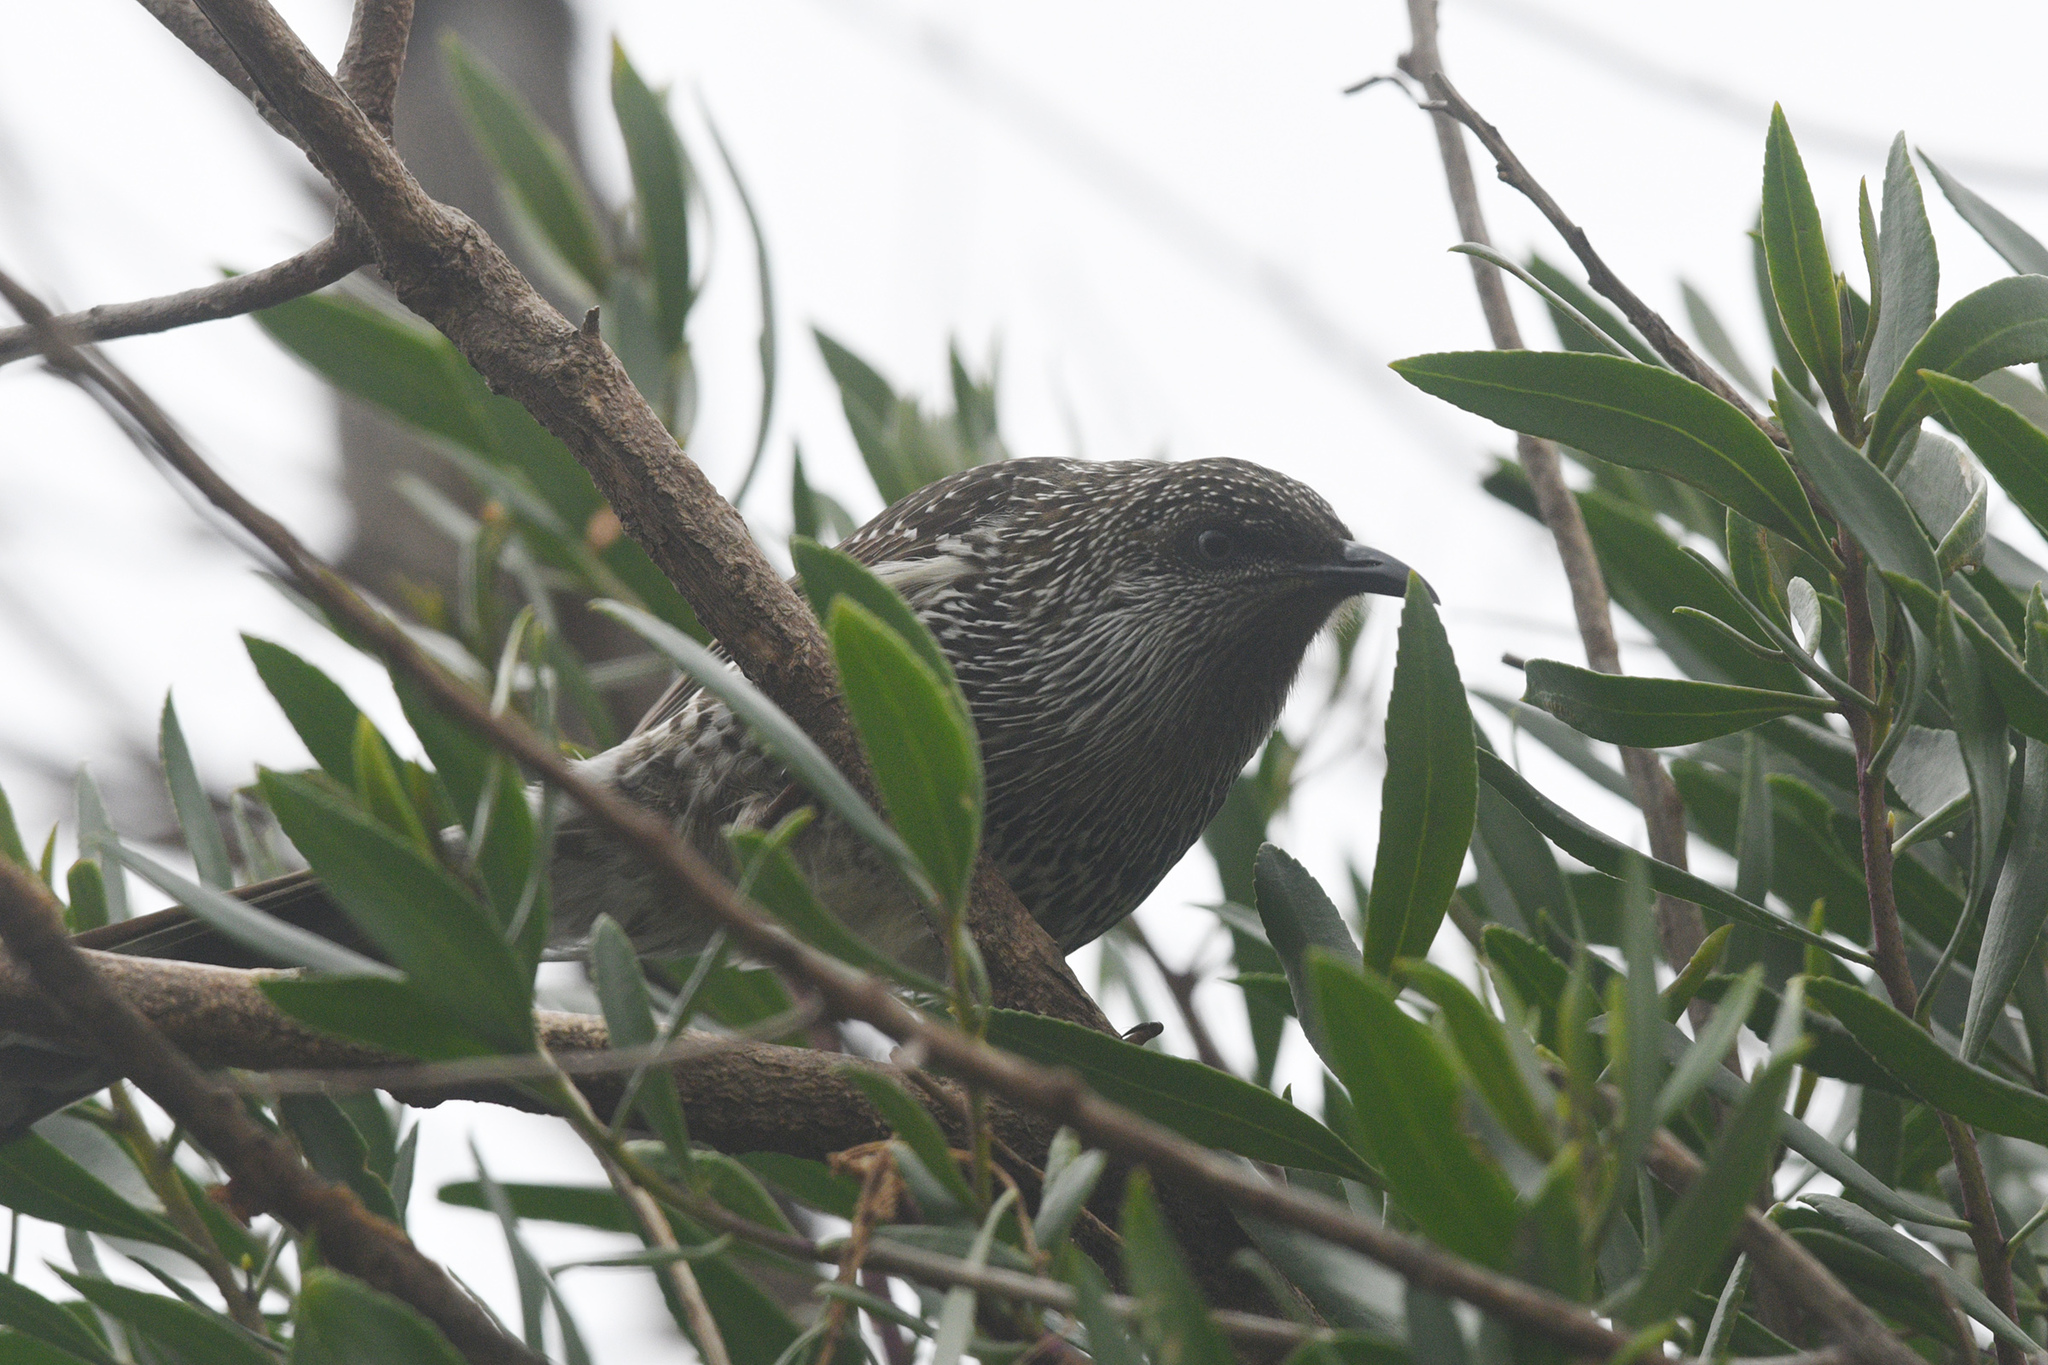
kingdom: Animalia
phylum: Chordata
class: Aves
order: Passeriformes
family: Meliphagidae
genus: Anthochaera
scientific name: Anthochaera chrysoptera
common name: Little wattlebird
